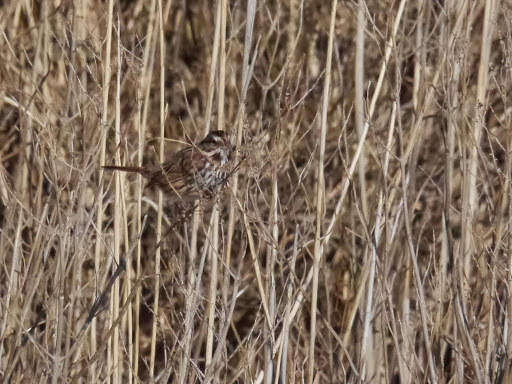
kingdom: Animalia
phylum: Chordata
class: Aves
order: Passeriformes
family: Passerellidae
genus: Melospiza
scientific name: Melospiza melodia
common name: Song sparrow
